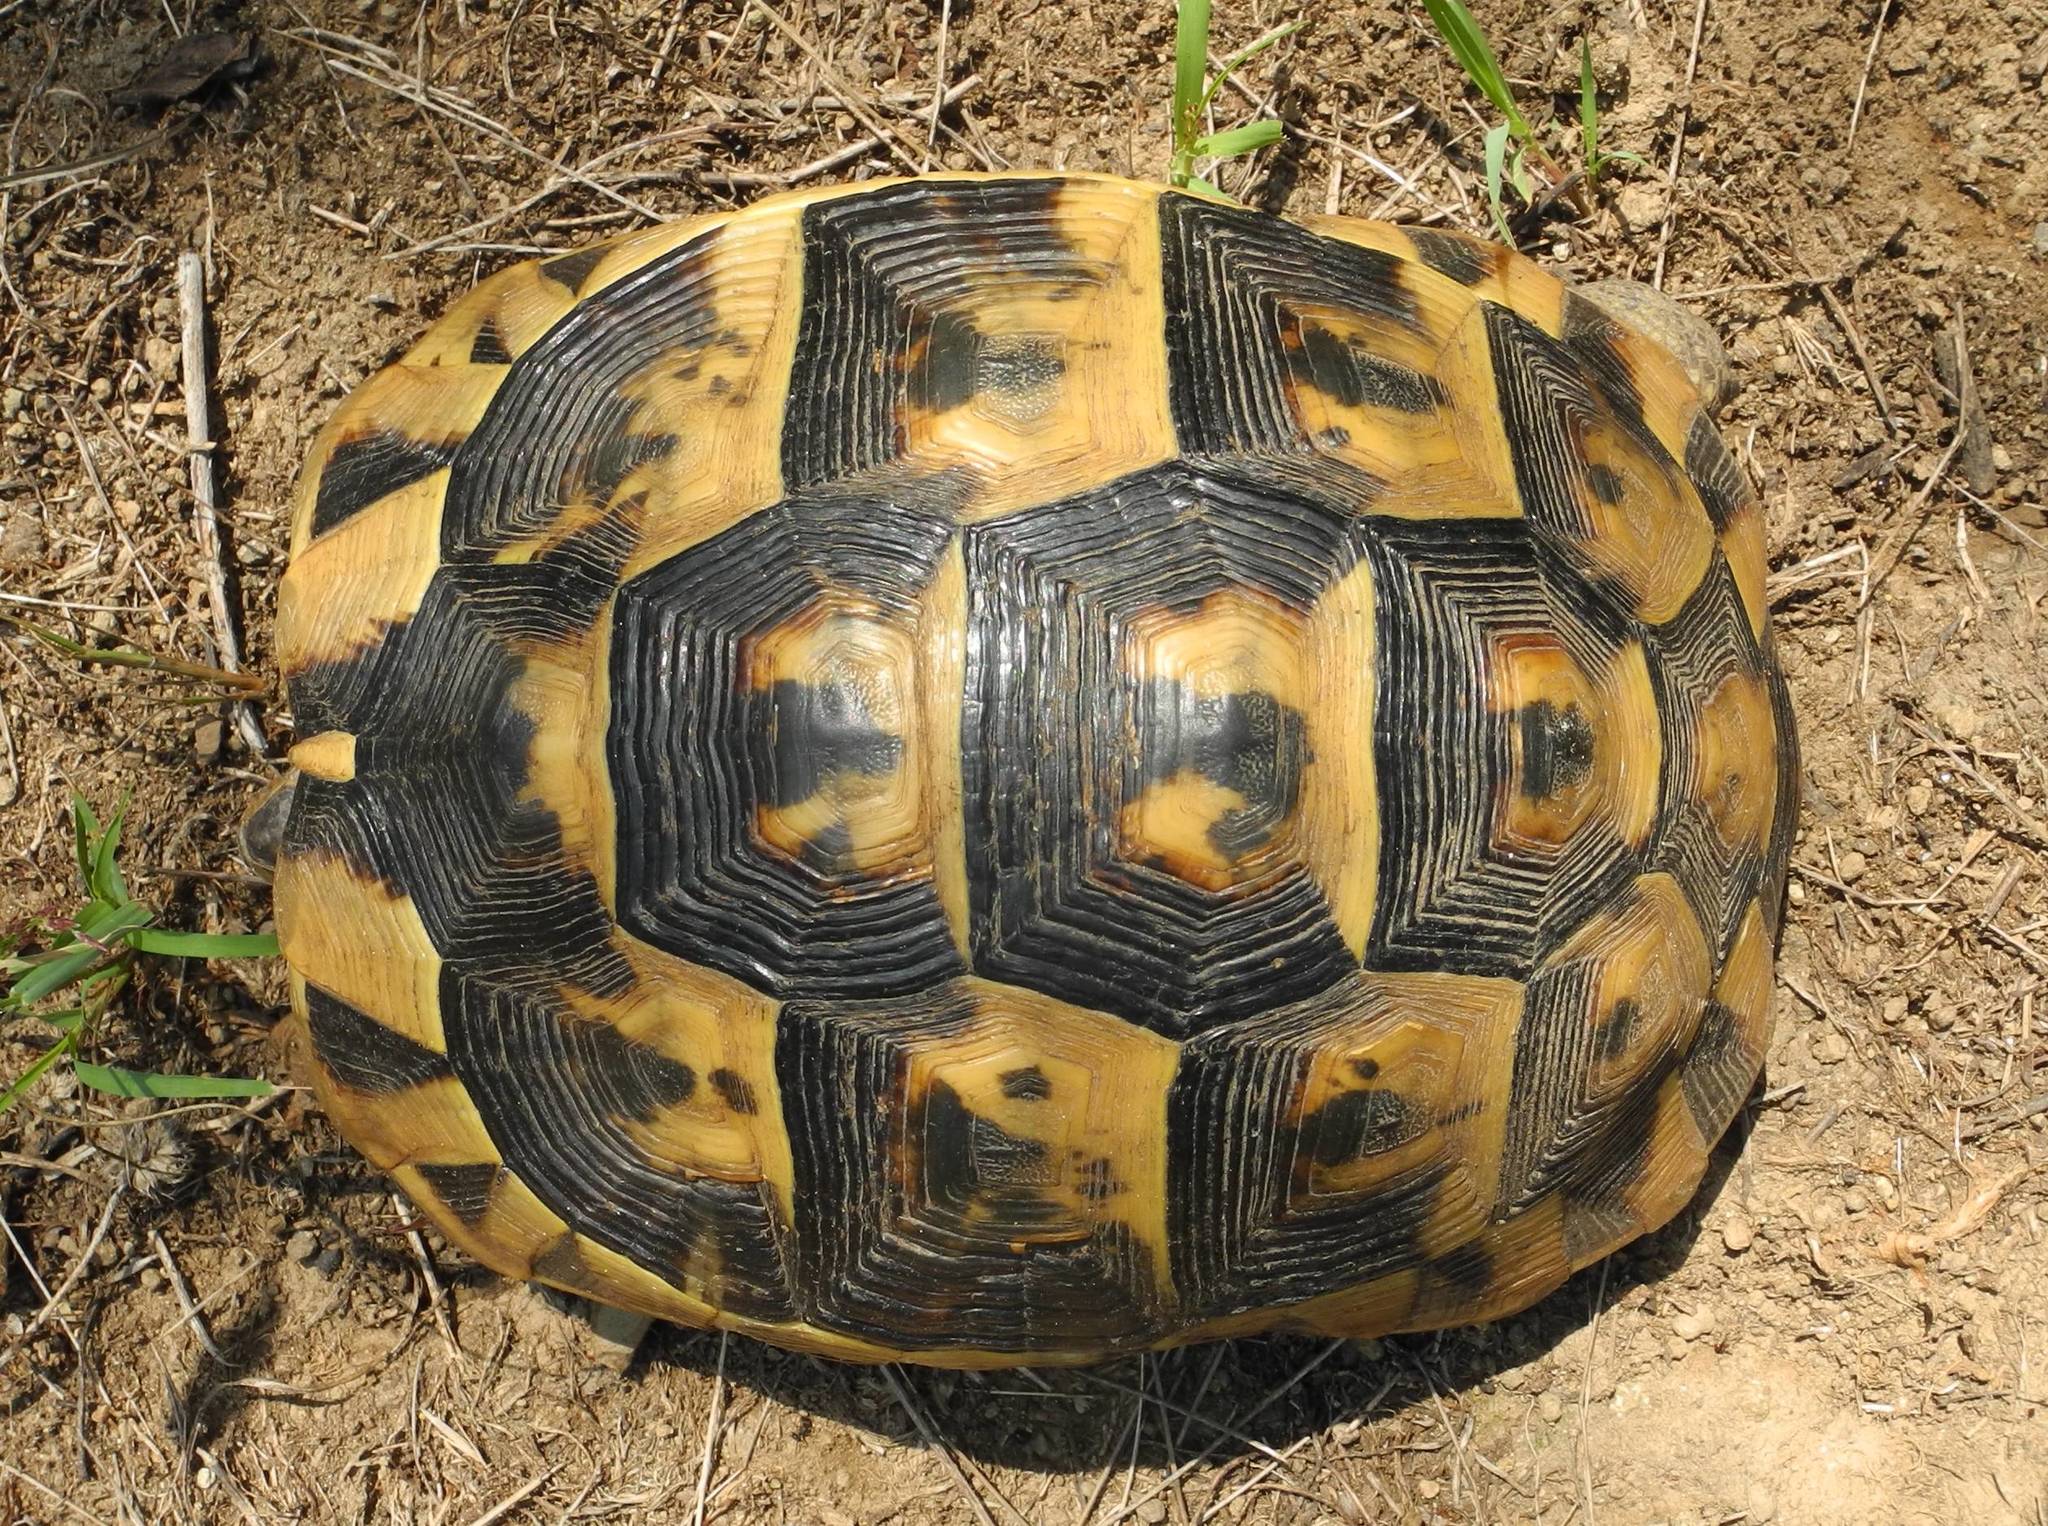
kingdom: Animalia
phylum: Chordata
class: Testudines
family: Testudinidae
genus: Testudo
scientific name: Testudo graeca
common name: Common tortoise
